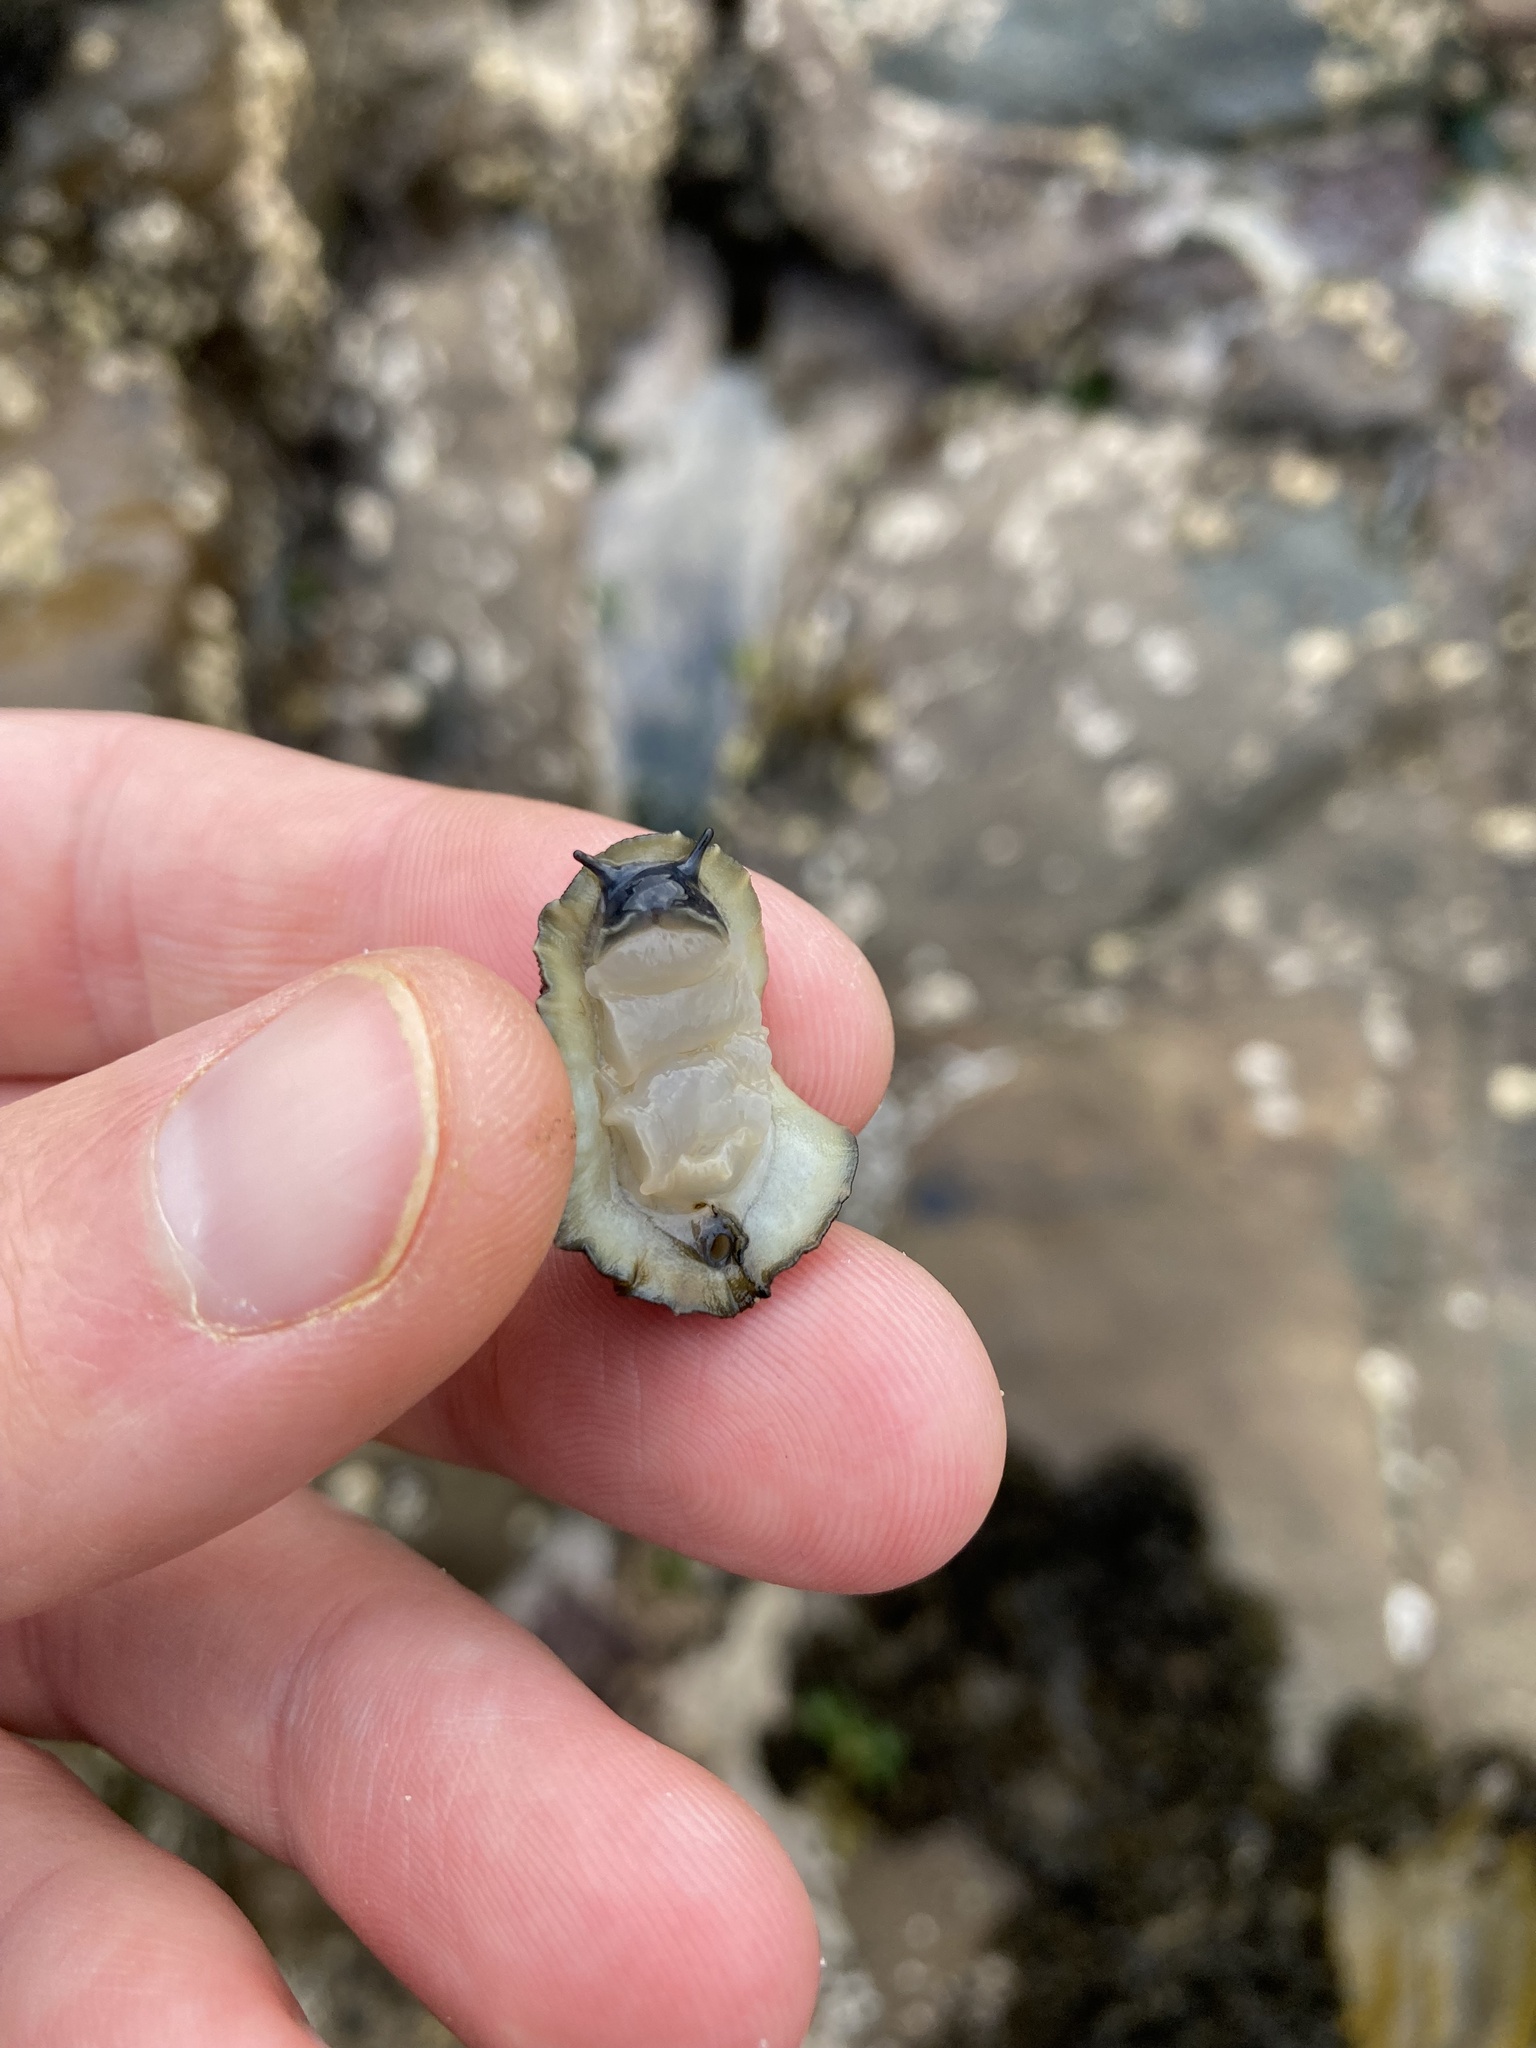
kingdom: Animalia
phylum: Mollusca
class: Gastropoda
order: Systellommatophora
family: Onchidiidae
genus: Onchidella
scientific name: Onchidella nigricans
